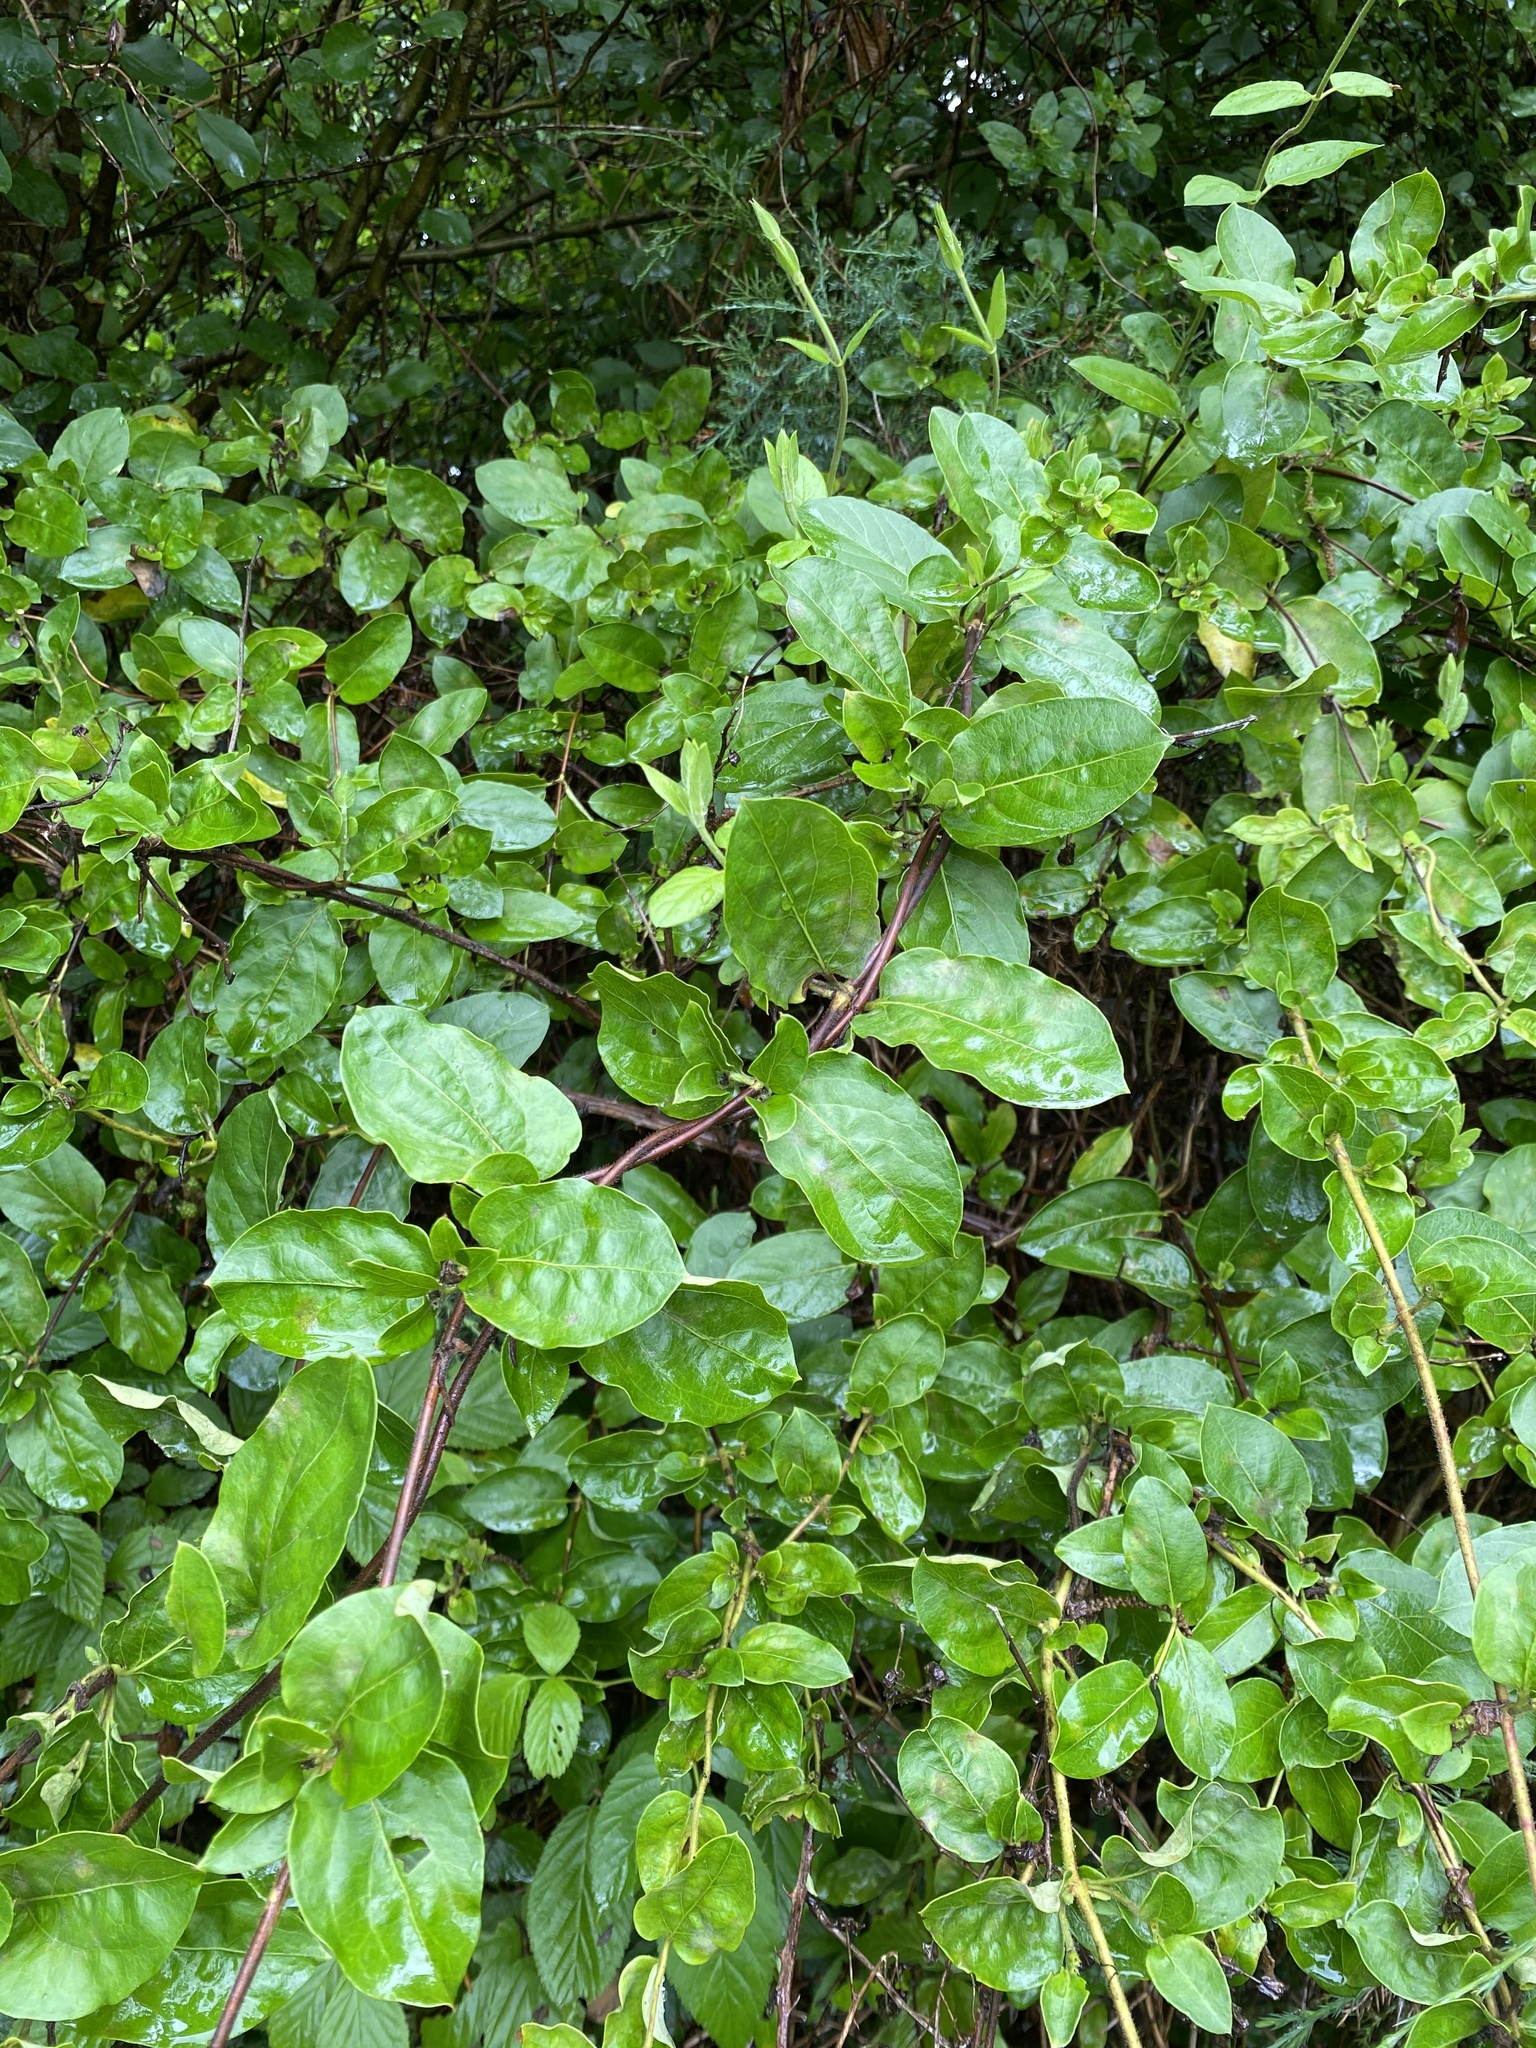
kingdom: Plantae
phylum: Tracheophyta
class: Magnoliopsida
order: Dipsacales
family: Caprifoliaceae
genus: Lonicera
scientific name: Lonicera japonica
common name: Japanese honeysuckle
